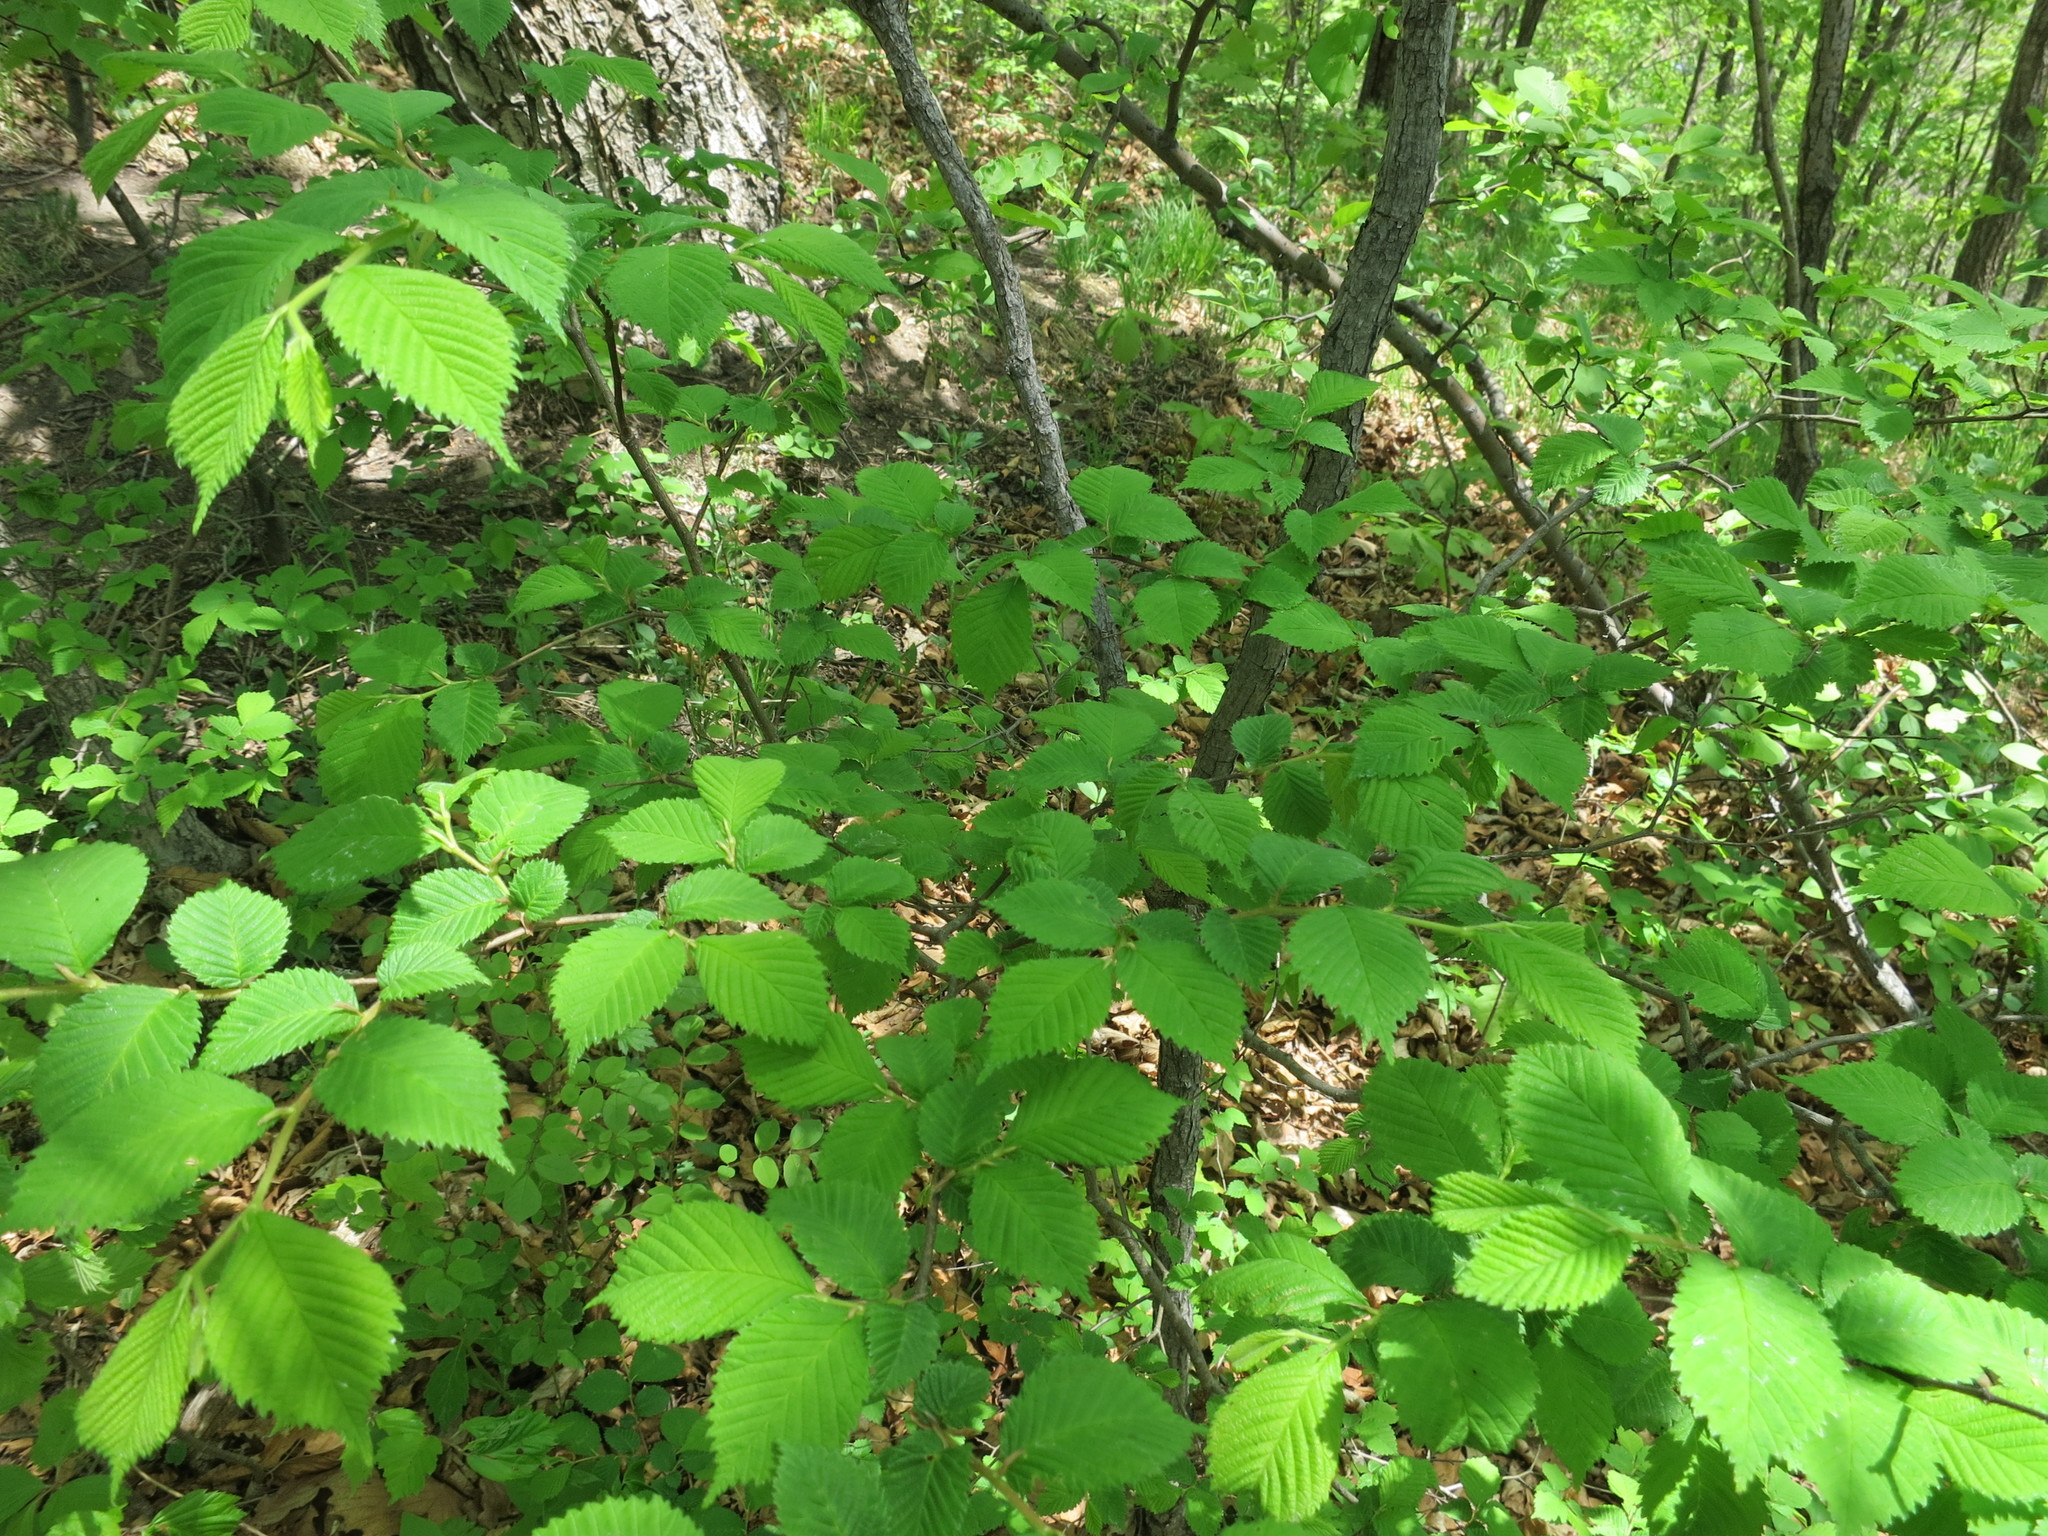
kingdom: Plantae
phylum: Tracheophyta
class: Magnoliopsida
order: Rosales
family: Ulmaceae
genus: Ulmus
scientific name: Ulmus davidiana
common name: Japanese elm
